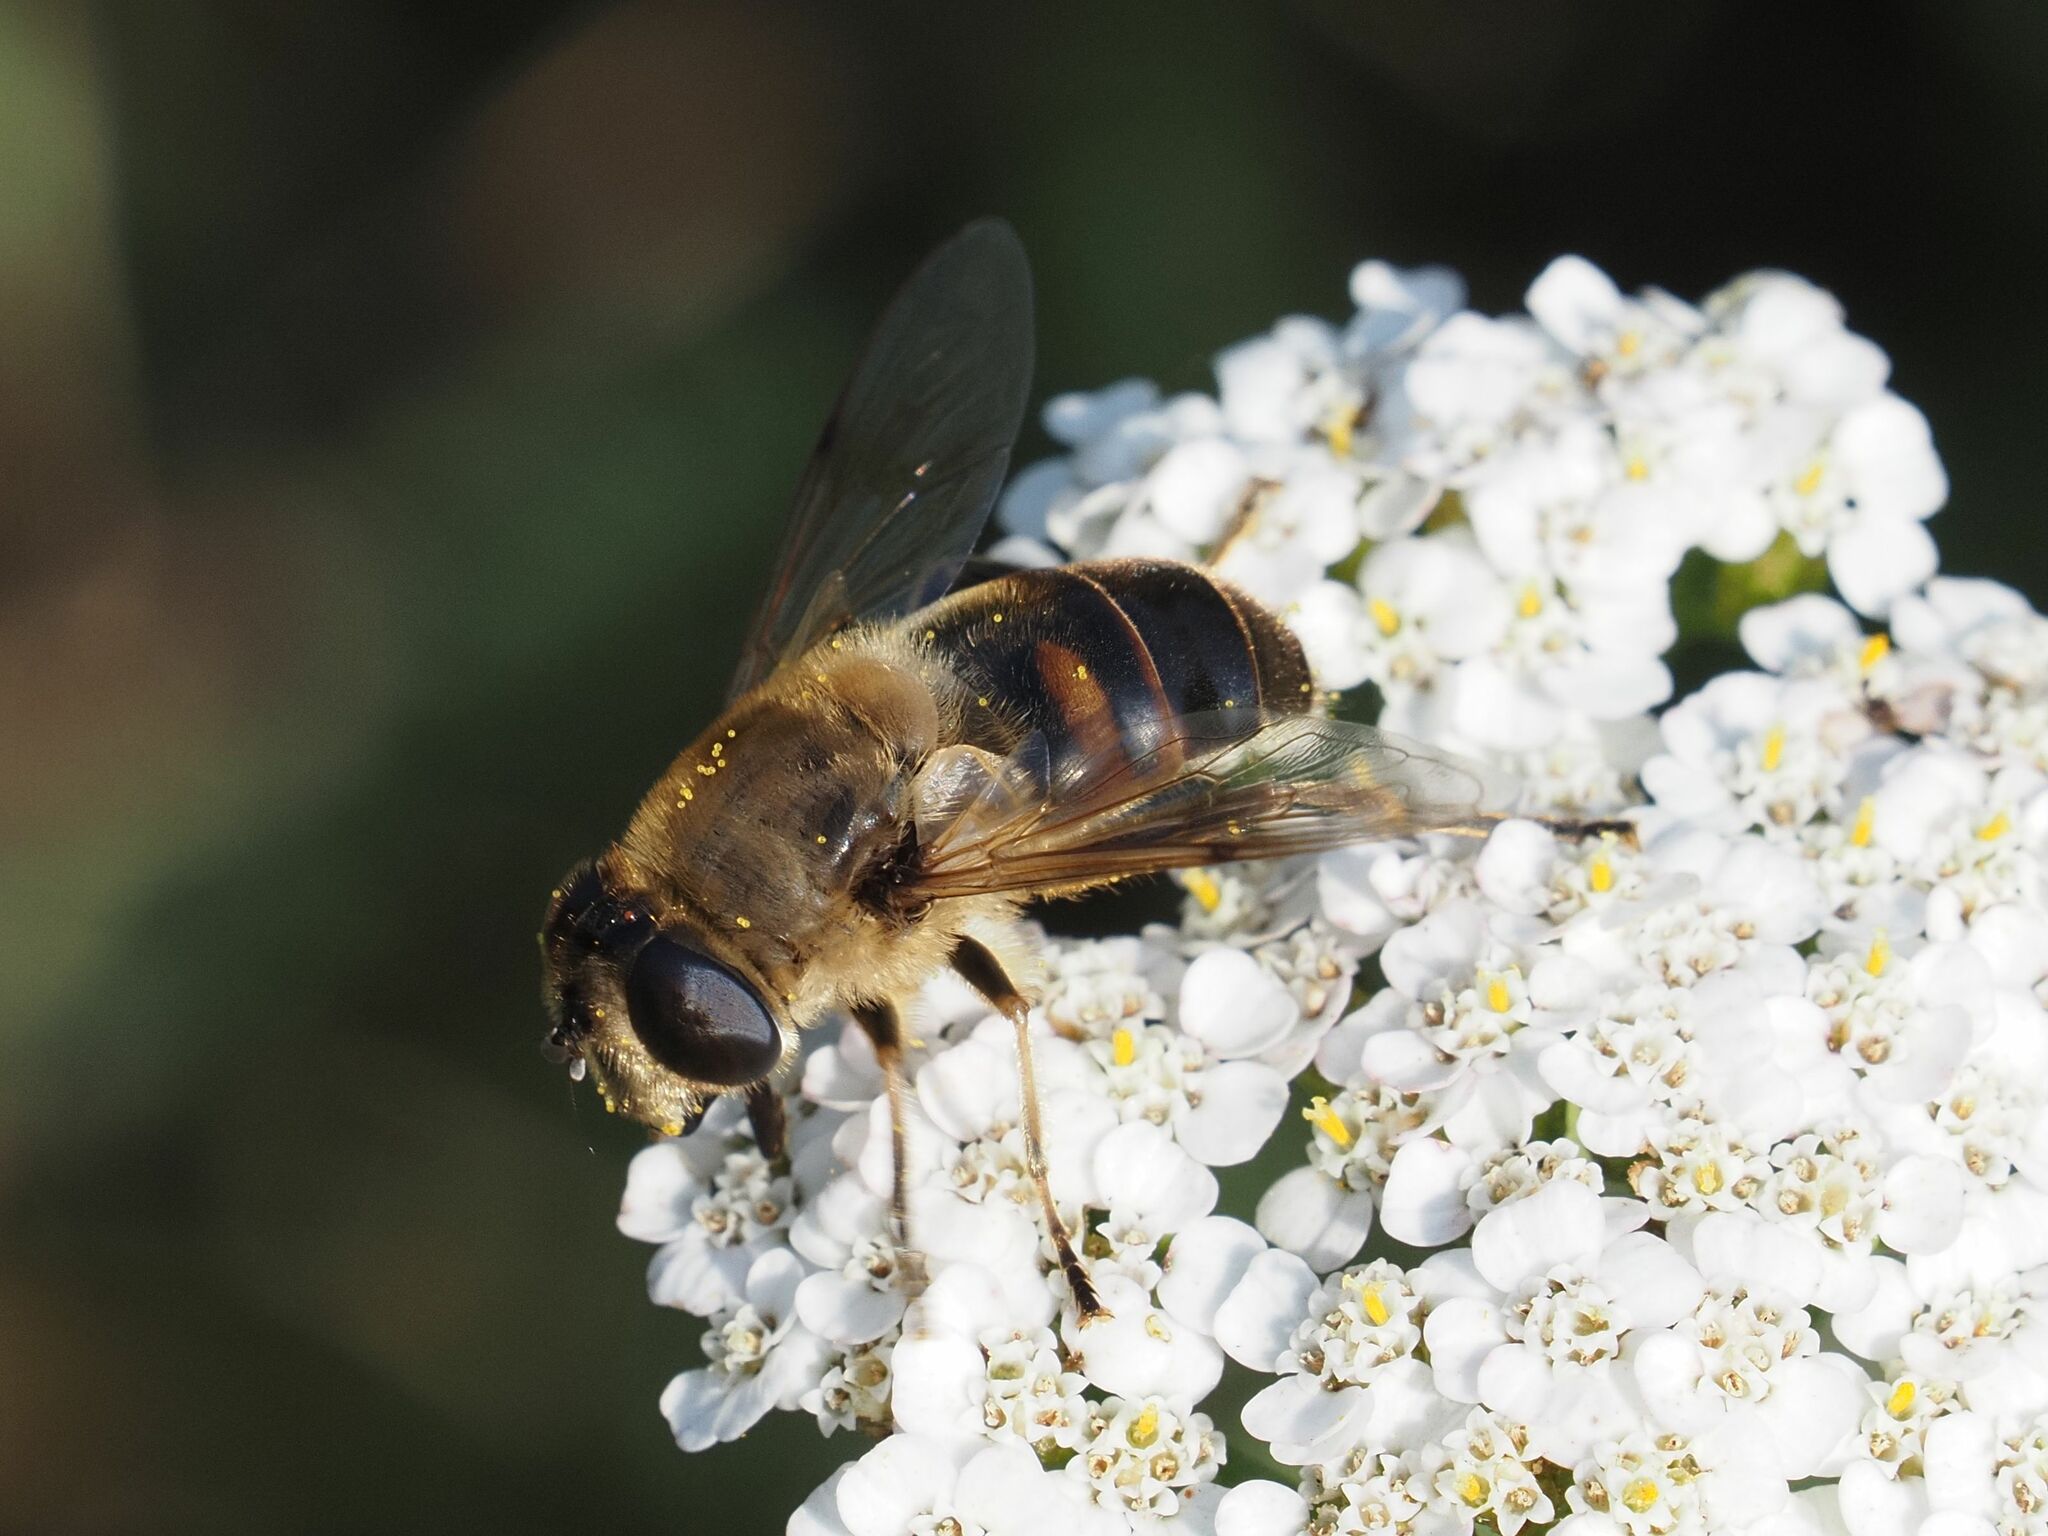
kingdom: Animalia
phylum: Arthropoda
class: Insecta
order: Diptera
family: Syrphidae
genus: Eristalis
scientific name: Eristalis tenax
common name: Drone fly
